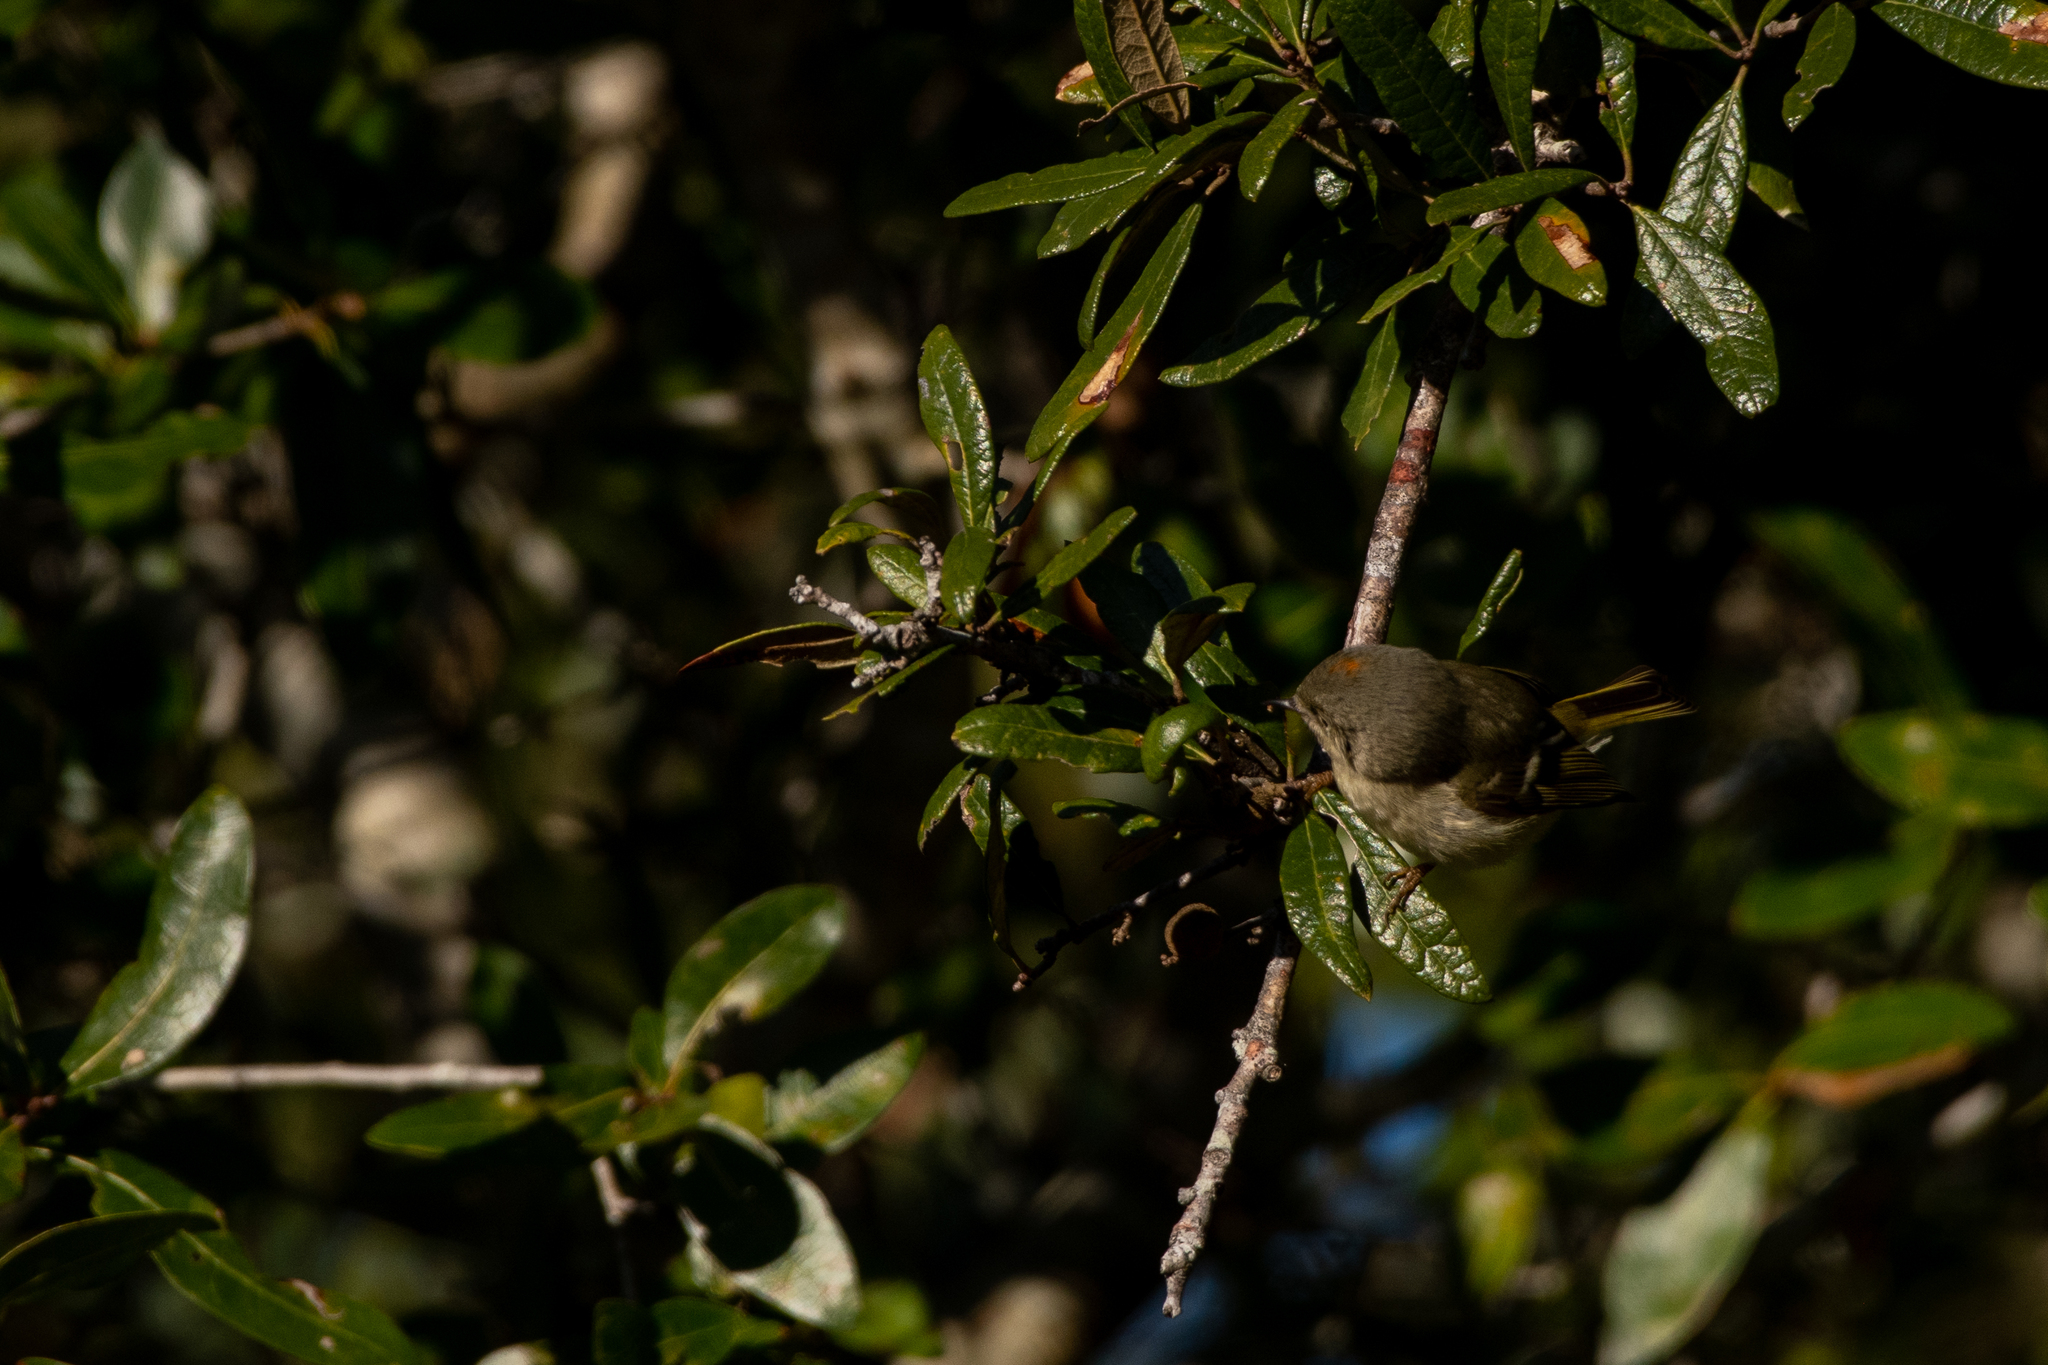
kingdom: Animalia
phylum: Chordata
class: Aves
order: Passeriformes
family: Regulidae
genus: Regulus
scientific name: Regulus calendula
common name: Ruby-crowned kinglet
